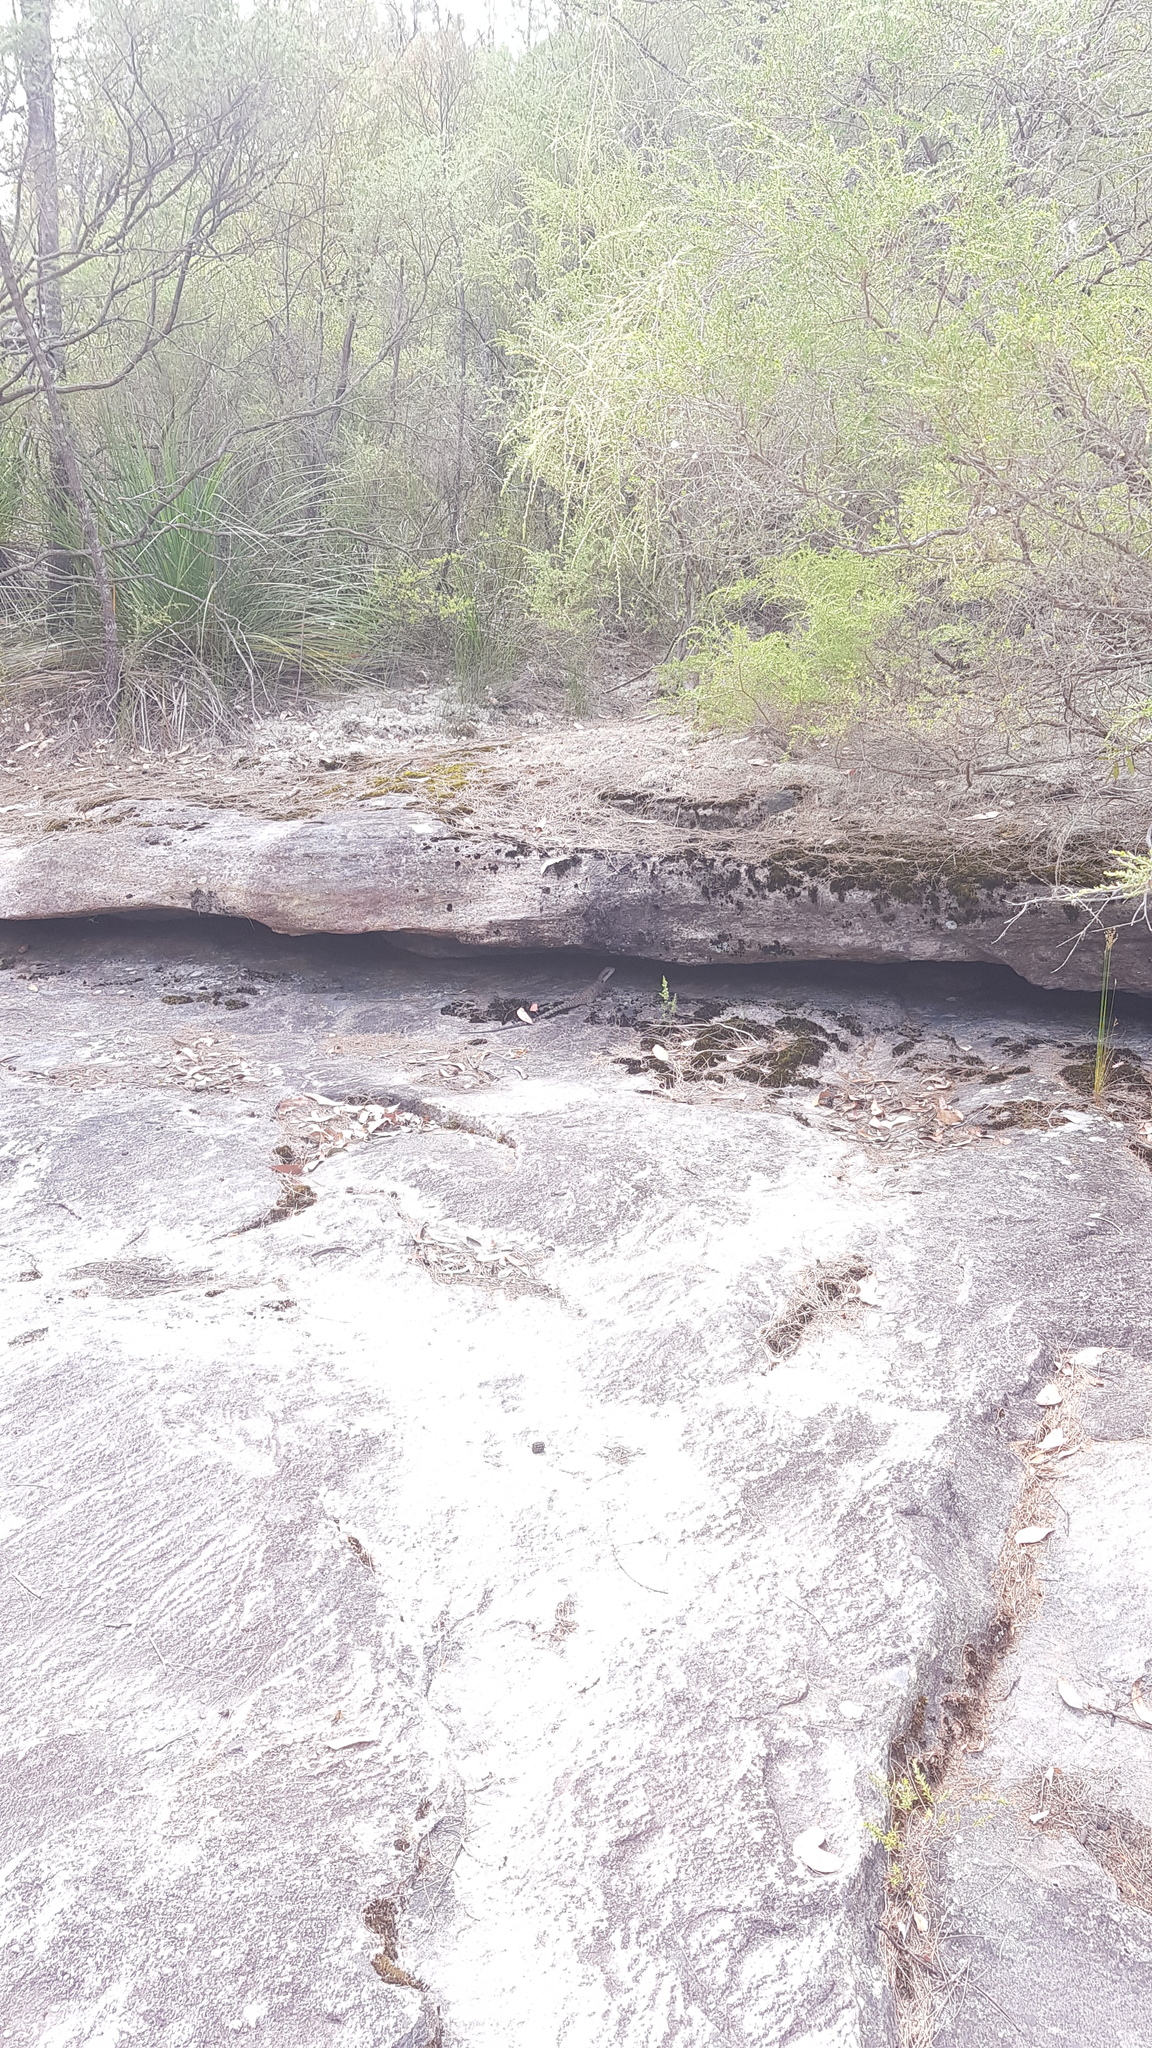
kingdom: Animalia
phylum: Chordata
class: Squamata
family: Agamidae
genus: Intellagama
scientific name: Intellagama lesueurii
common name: Eastern water dragon
